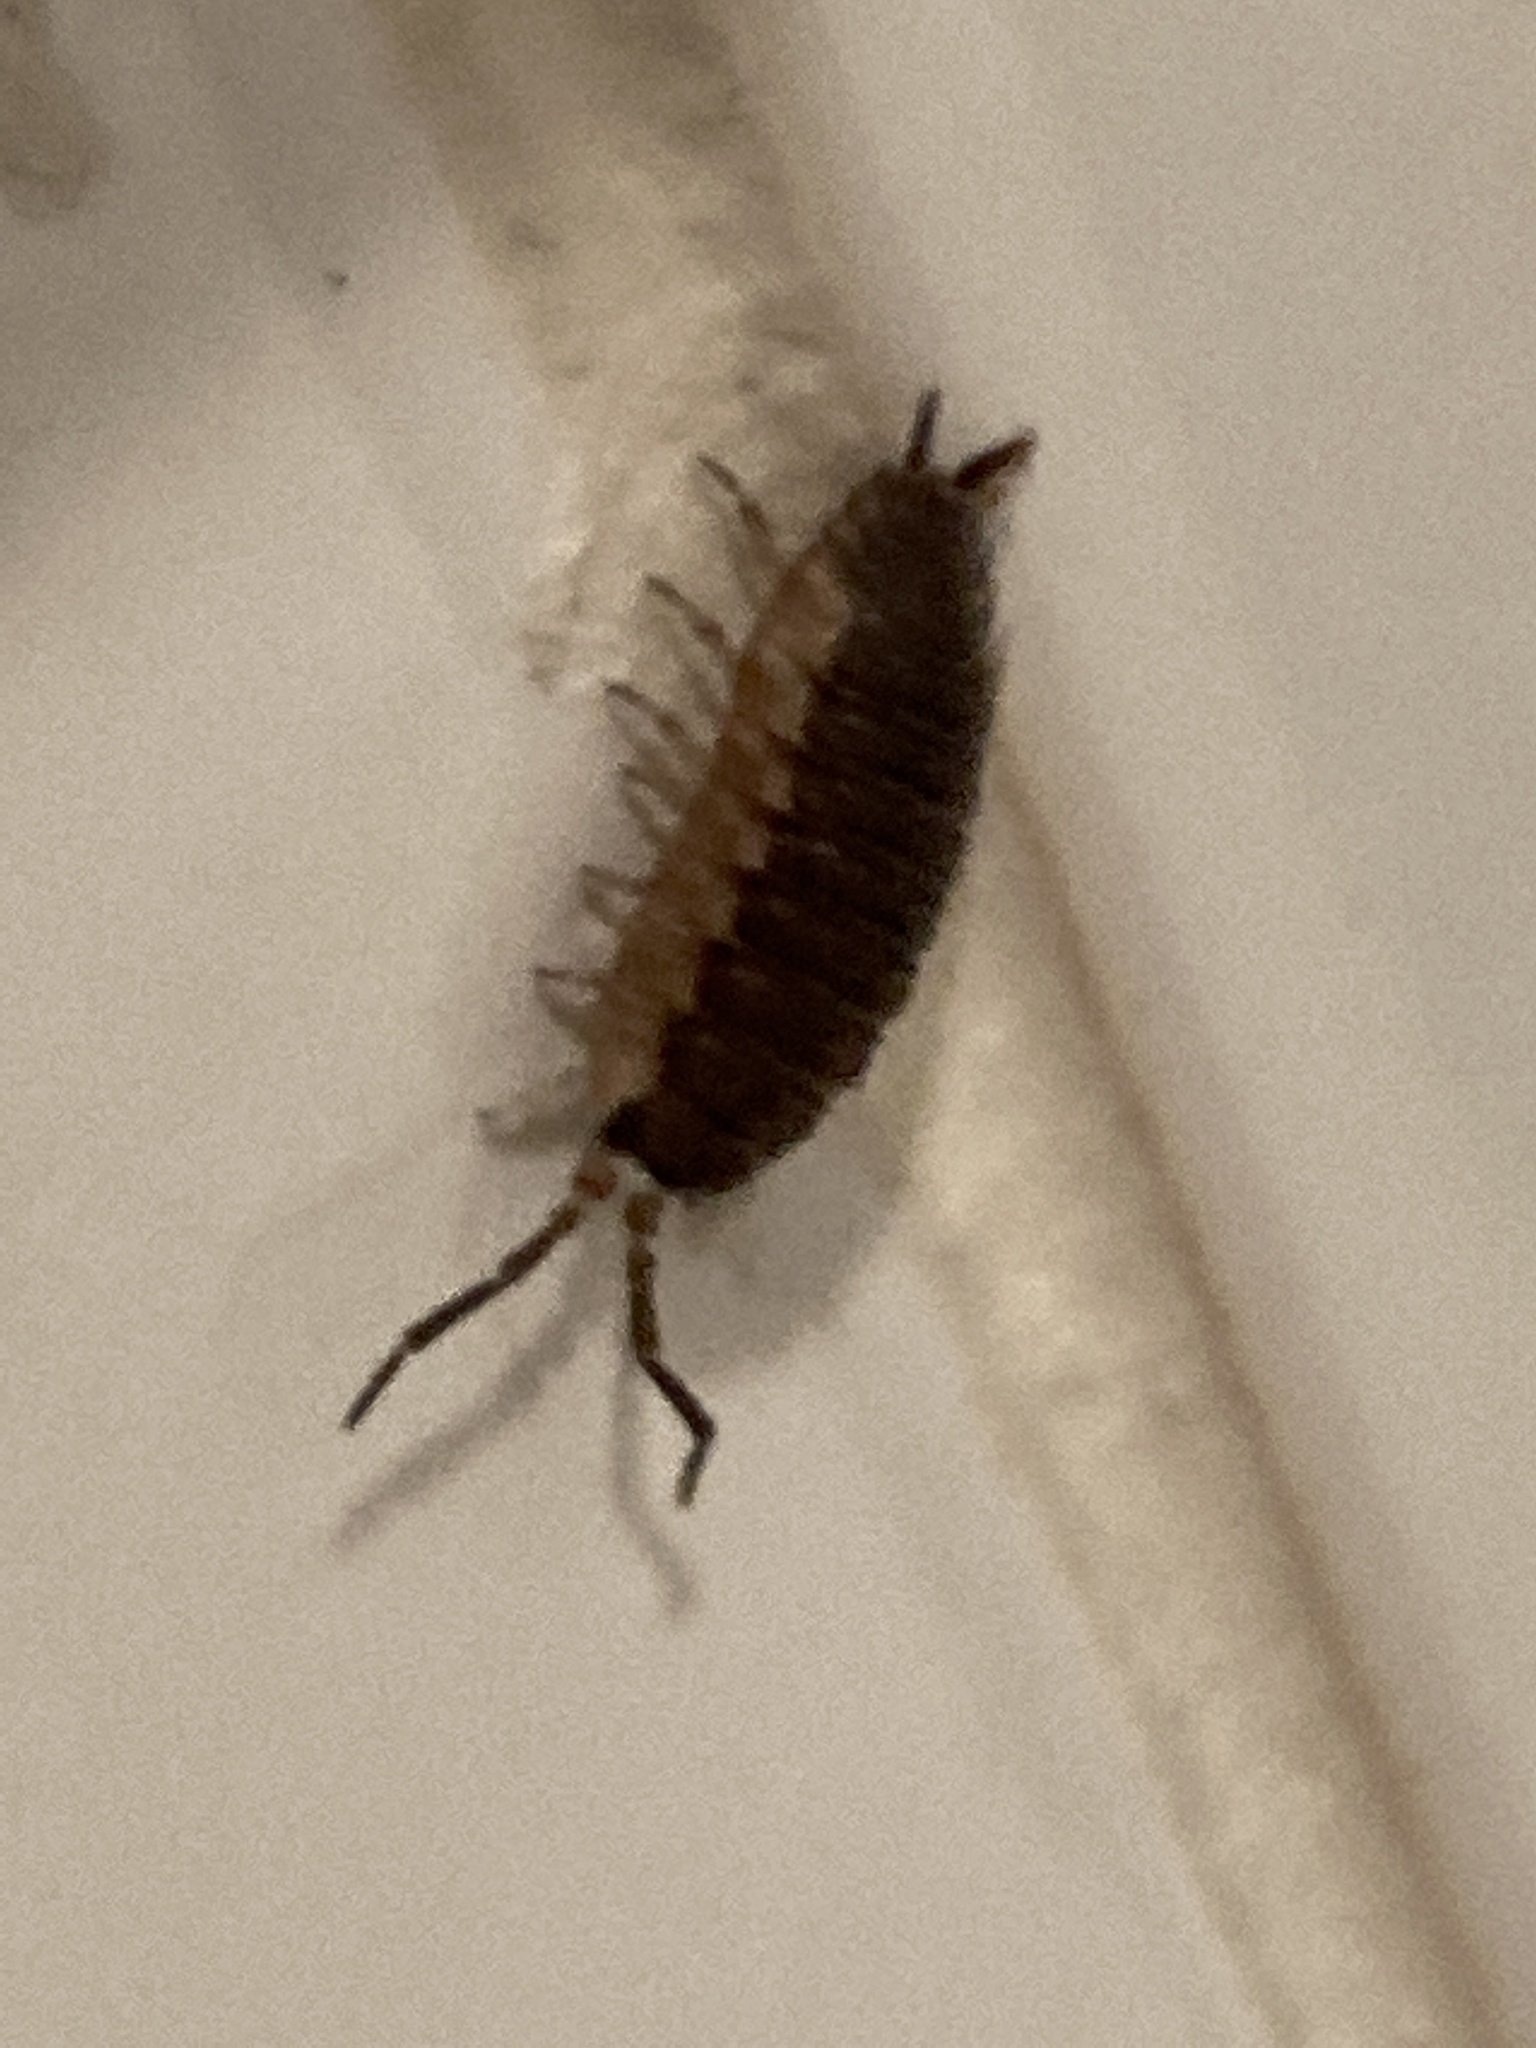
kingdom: Animalia
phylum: Arthropoda
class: Malacostraca
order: Isopoda
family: Porcellionidae
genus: Porcellio
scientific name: Porcellio scaber
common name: Common rough woodlouse
